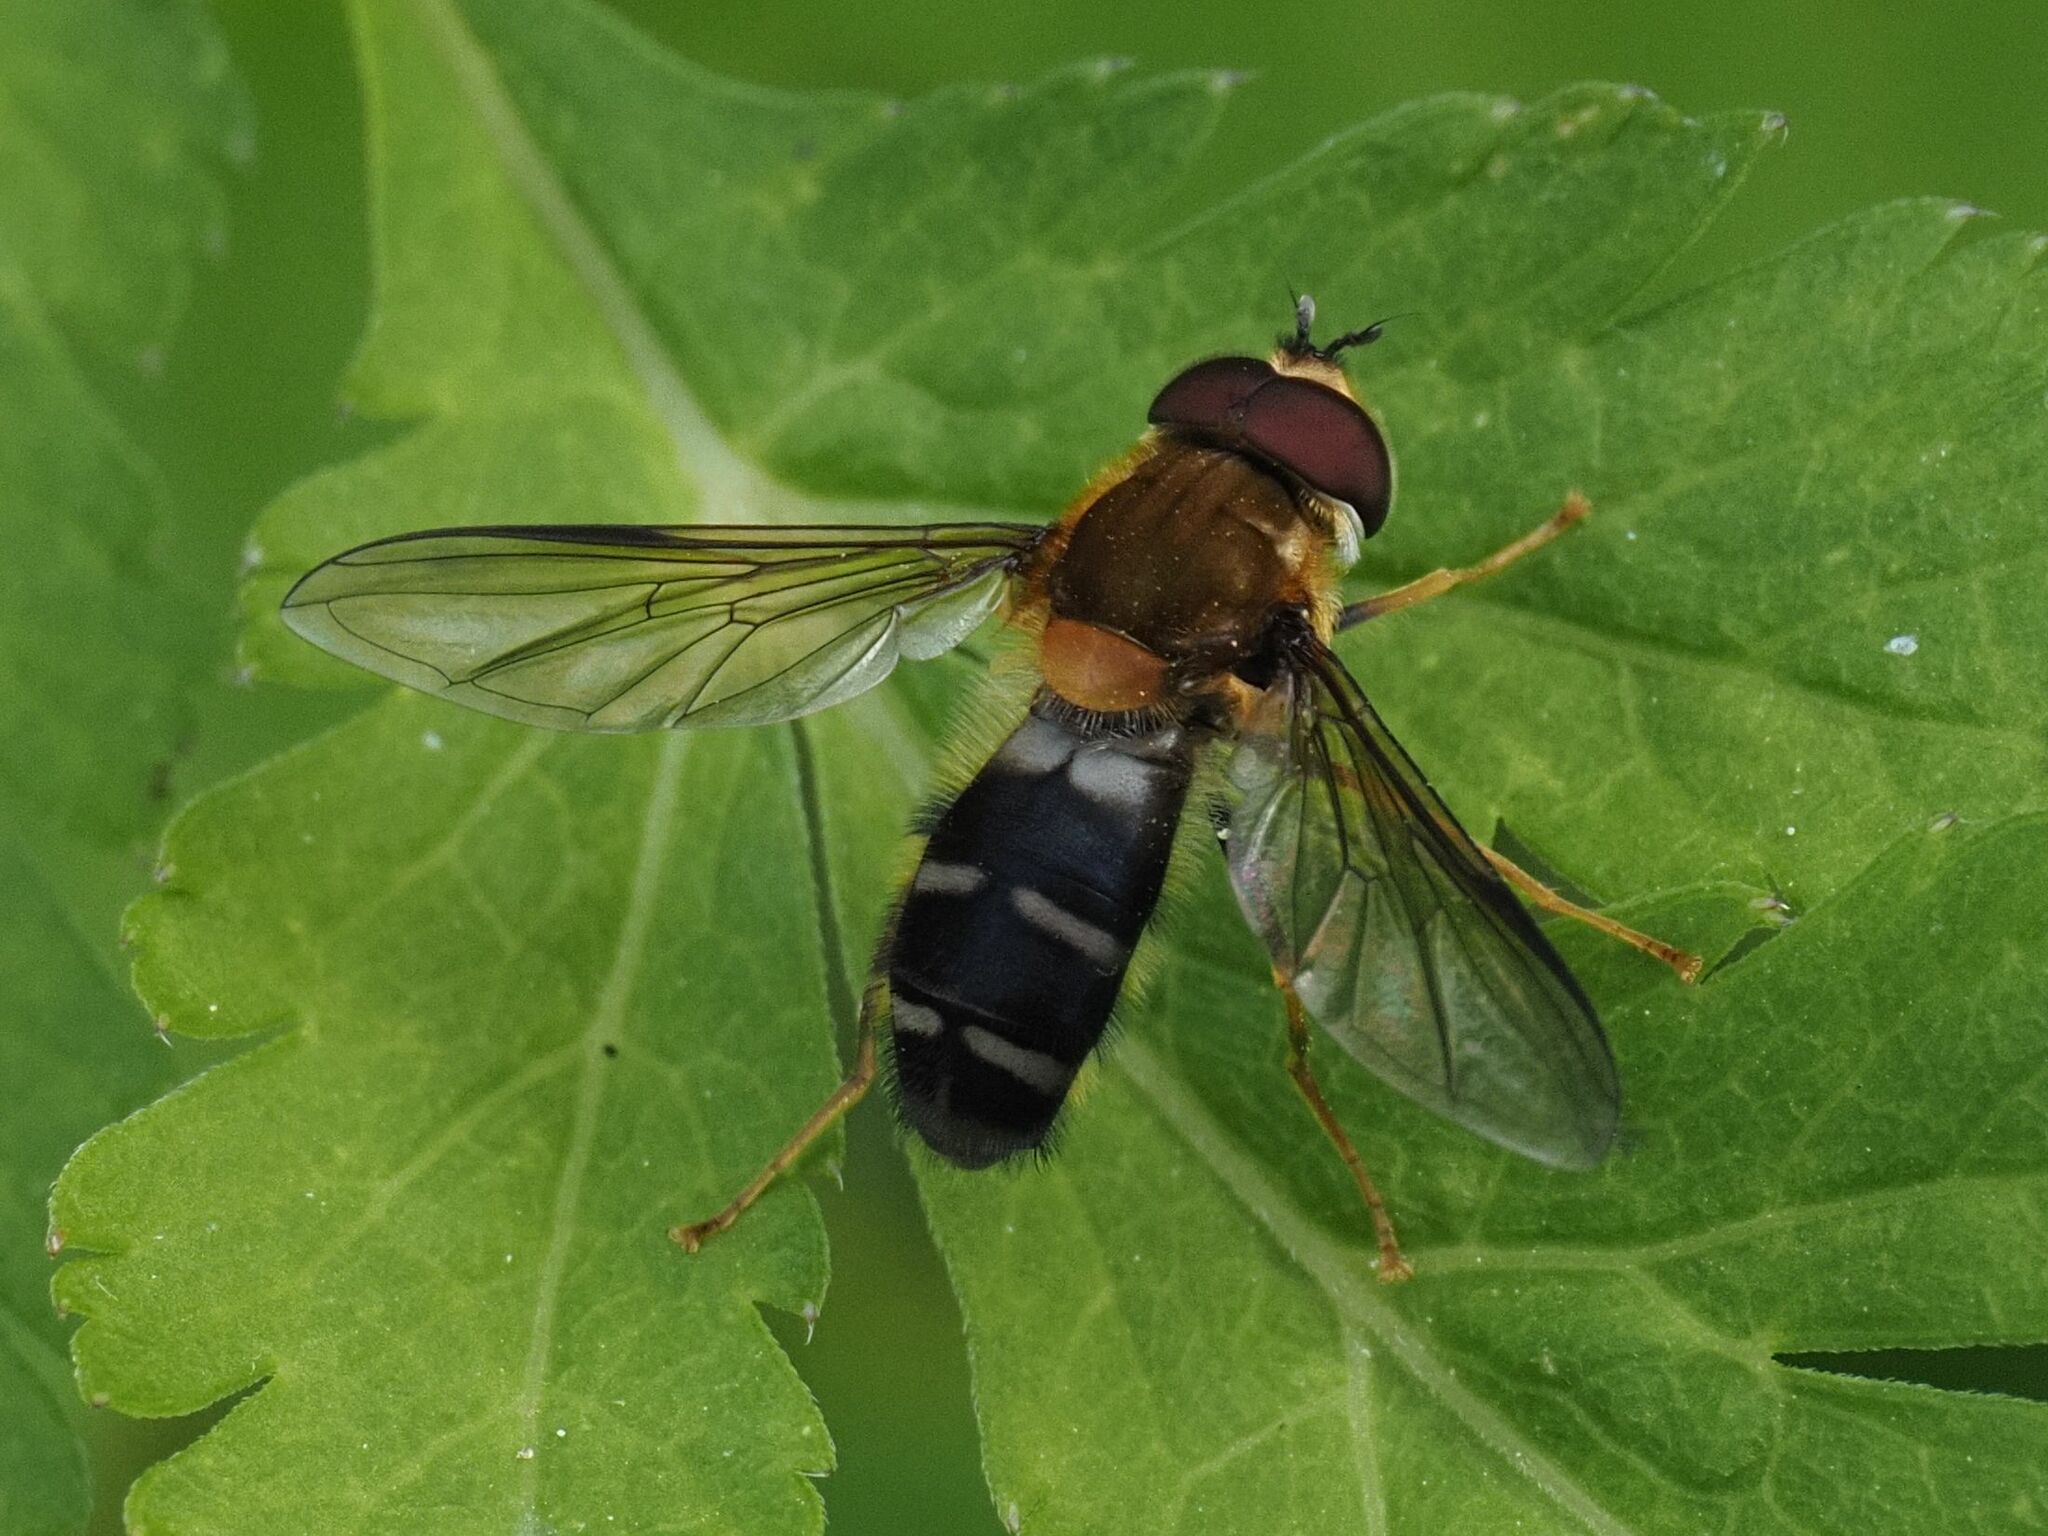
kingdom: Animalia
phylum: Arthropoda
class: Insecta
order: Diptera
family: Syrphidae
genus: Leucozona
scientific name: Leucozona glaucia
